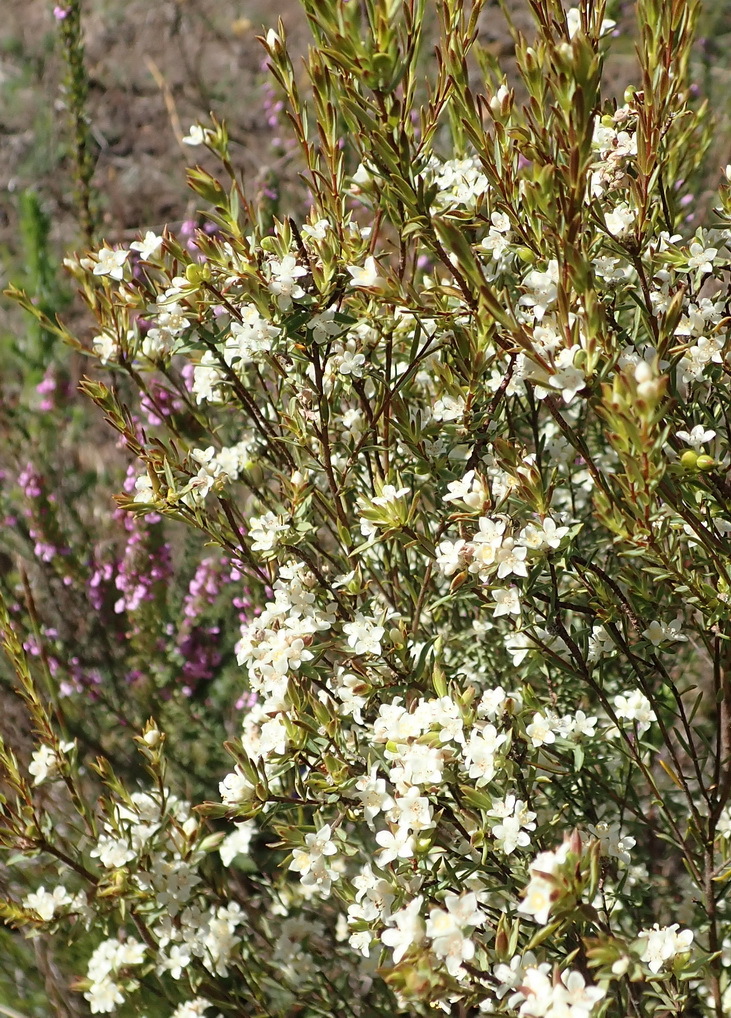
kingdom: Plantae
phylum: Tracheophyta
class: Magnoliopsida
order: Malvales
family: Thymelaeaceae
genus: Lachnaea
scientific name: Lachnaea burchellii
